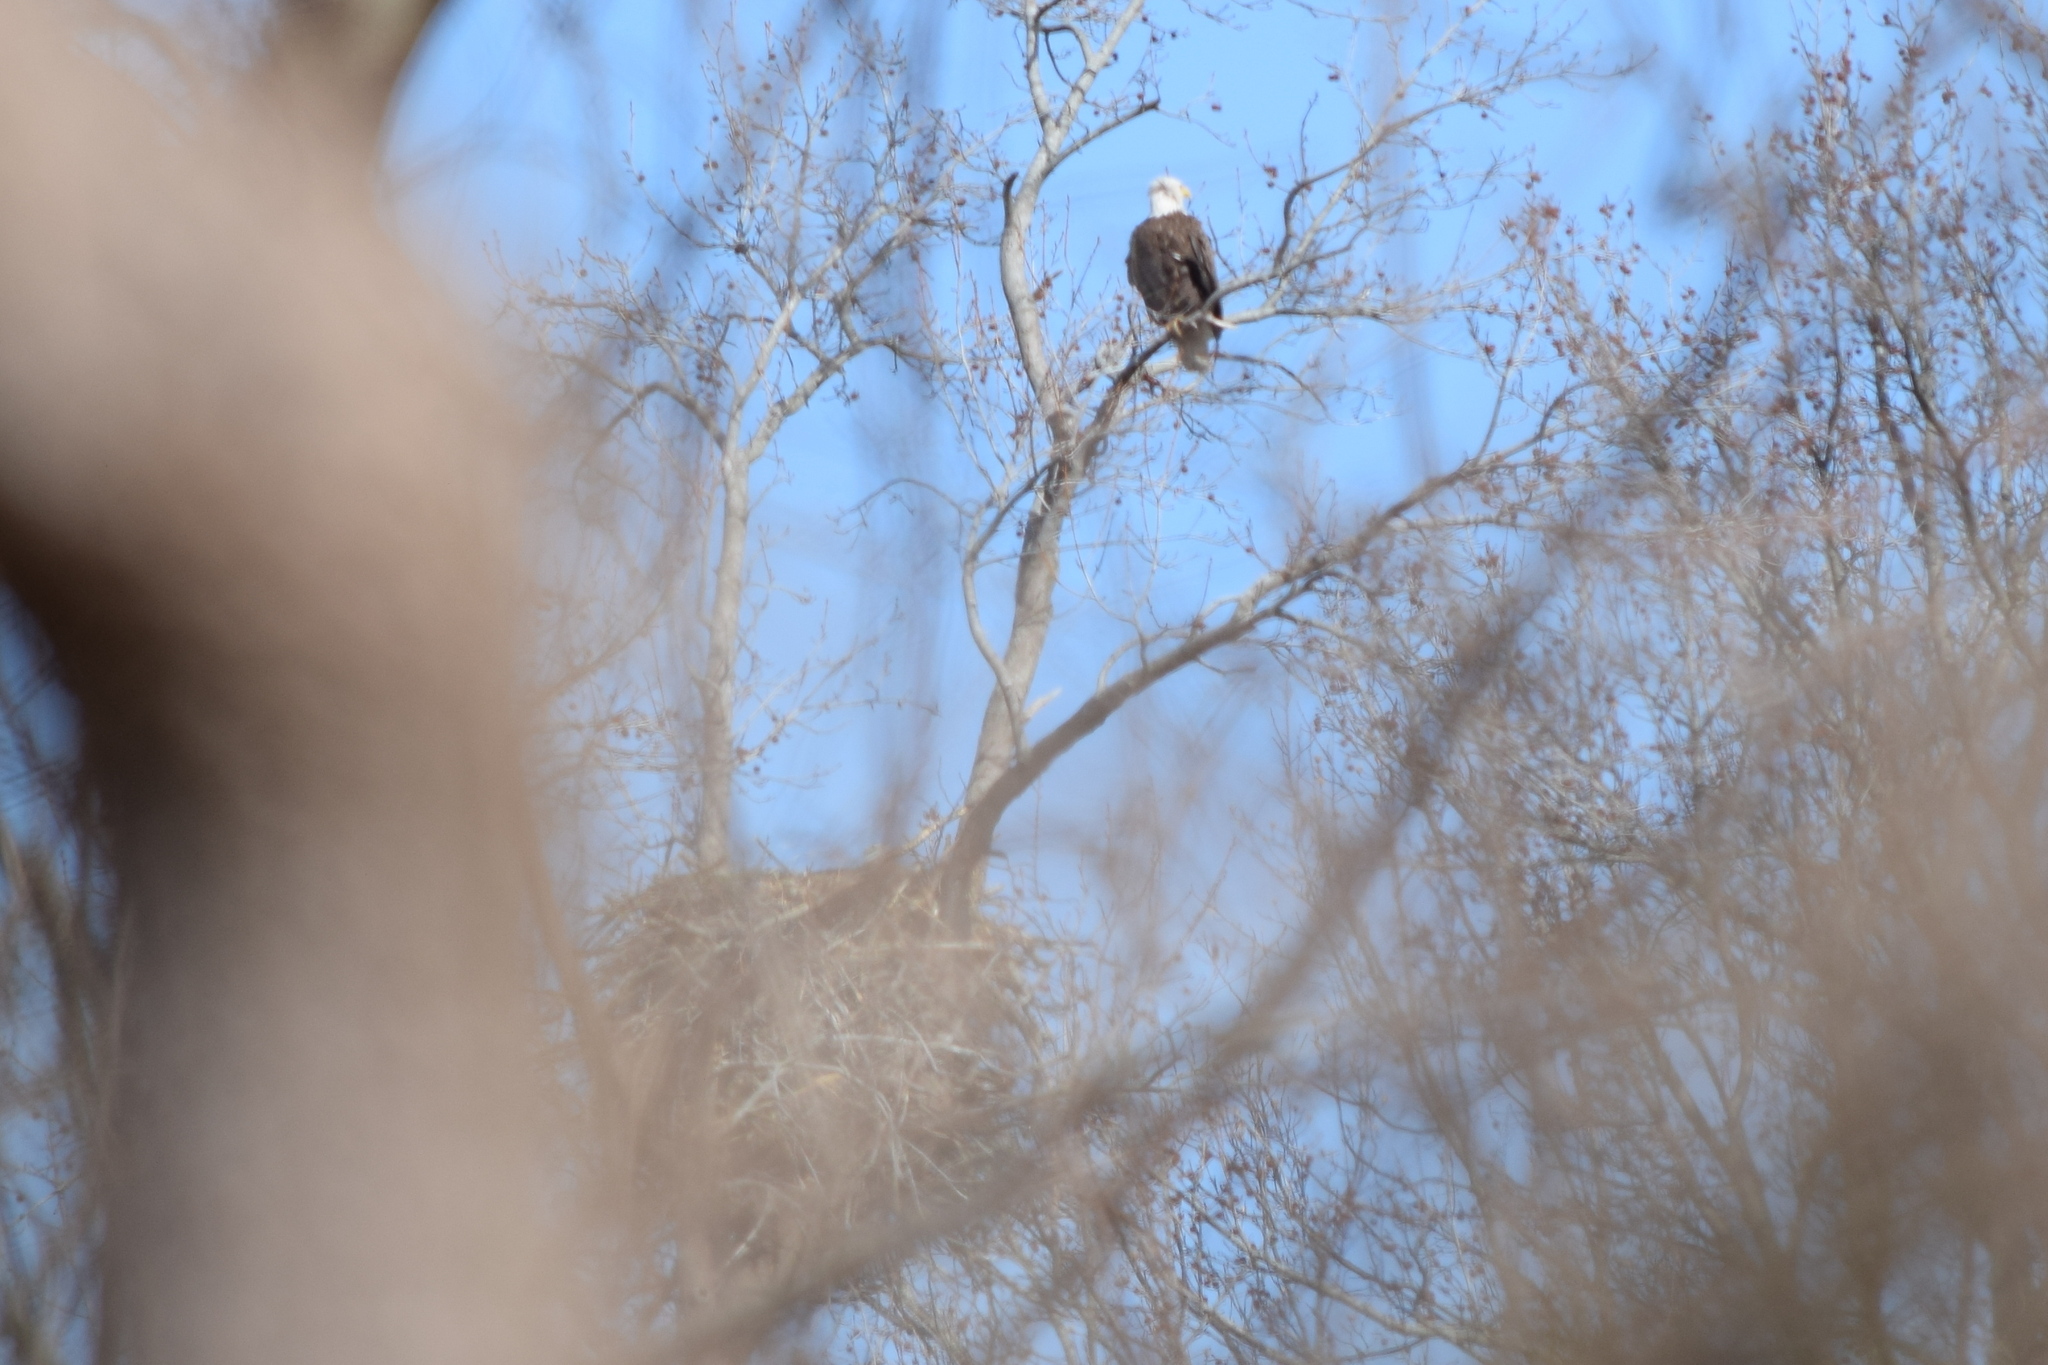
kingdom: Animalia
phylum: Chordata
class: Aves
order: Accipitriformes
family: Accipitridae
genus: Haliaeetus
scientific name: Haliaeetus leucocephalus
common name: Bald eagle
